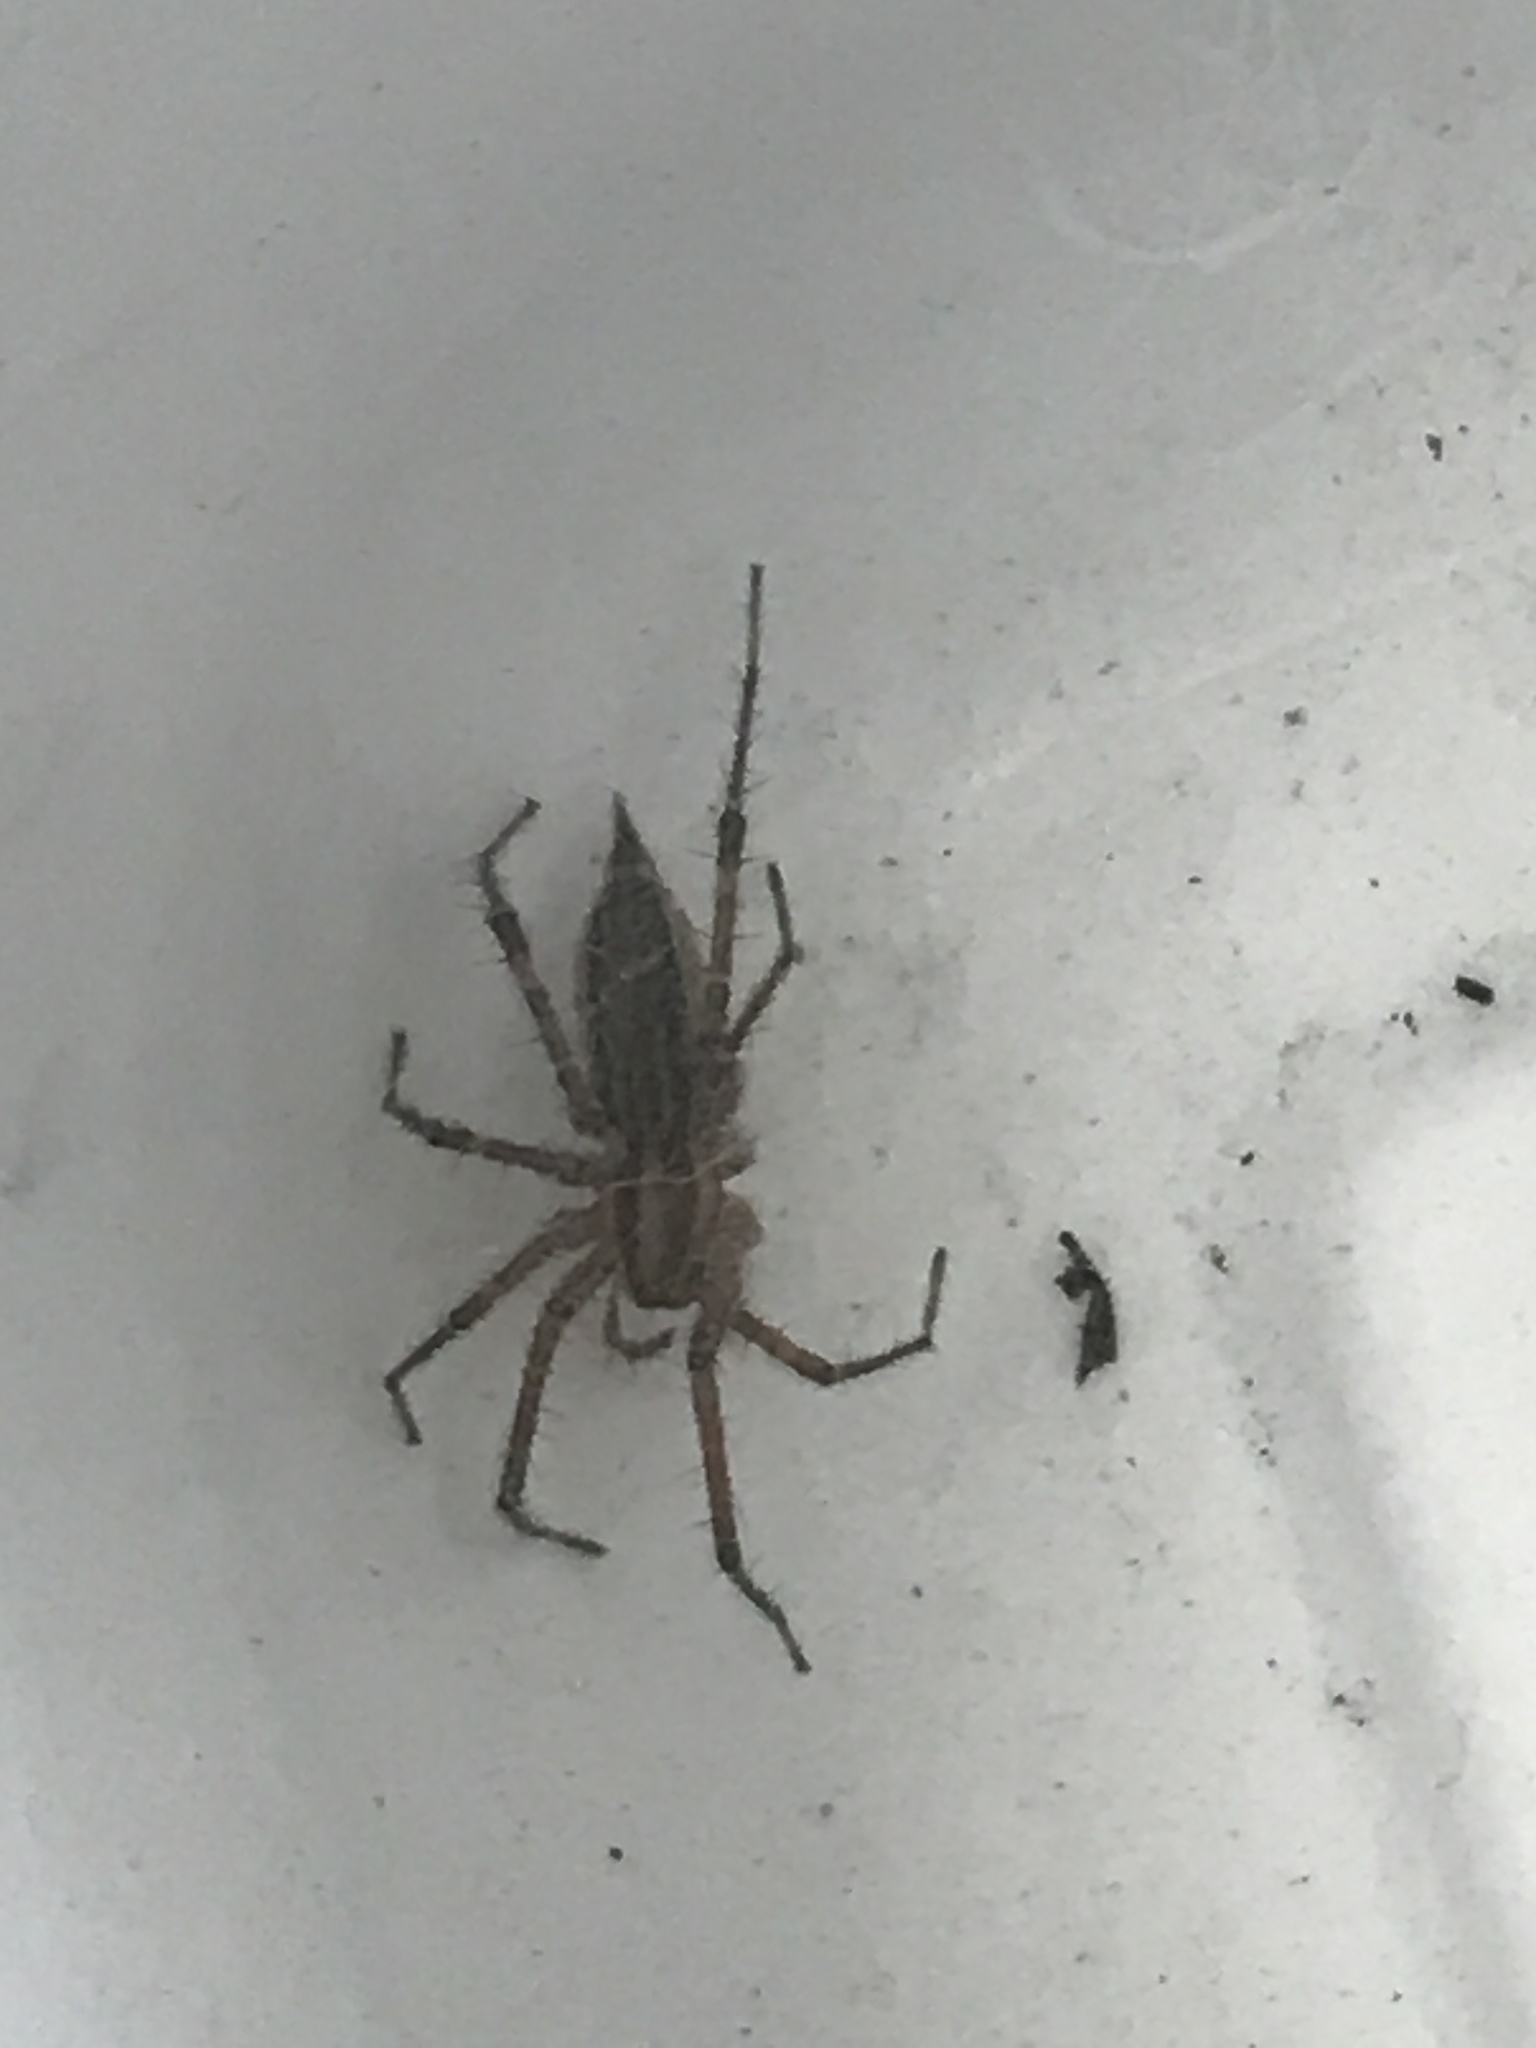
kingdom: Animalia
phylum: Arthropoda
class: Arachnida
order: Araneae
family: Agelenidae
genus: Agelenopsis
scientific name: Agelenopsis
